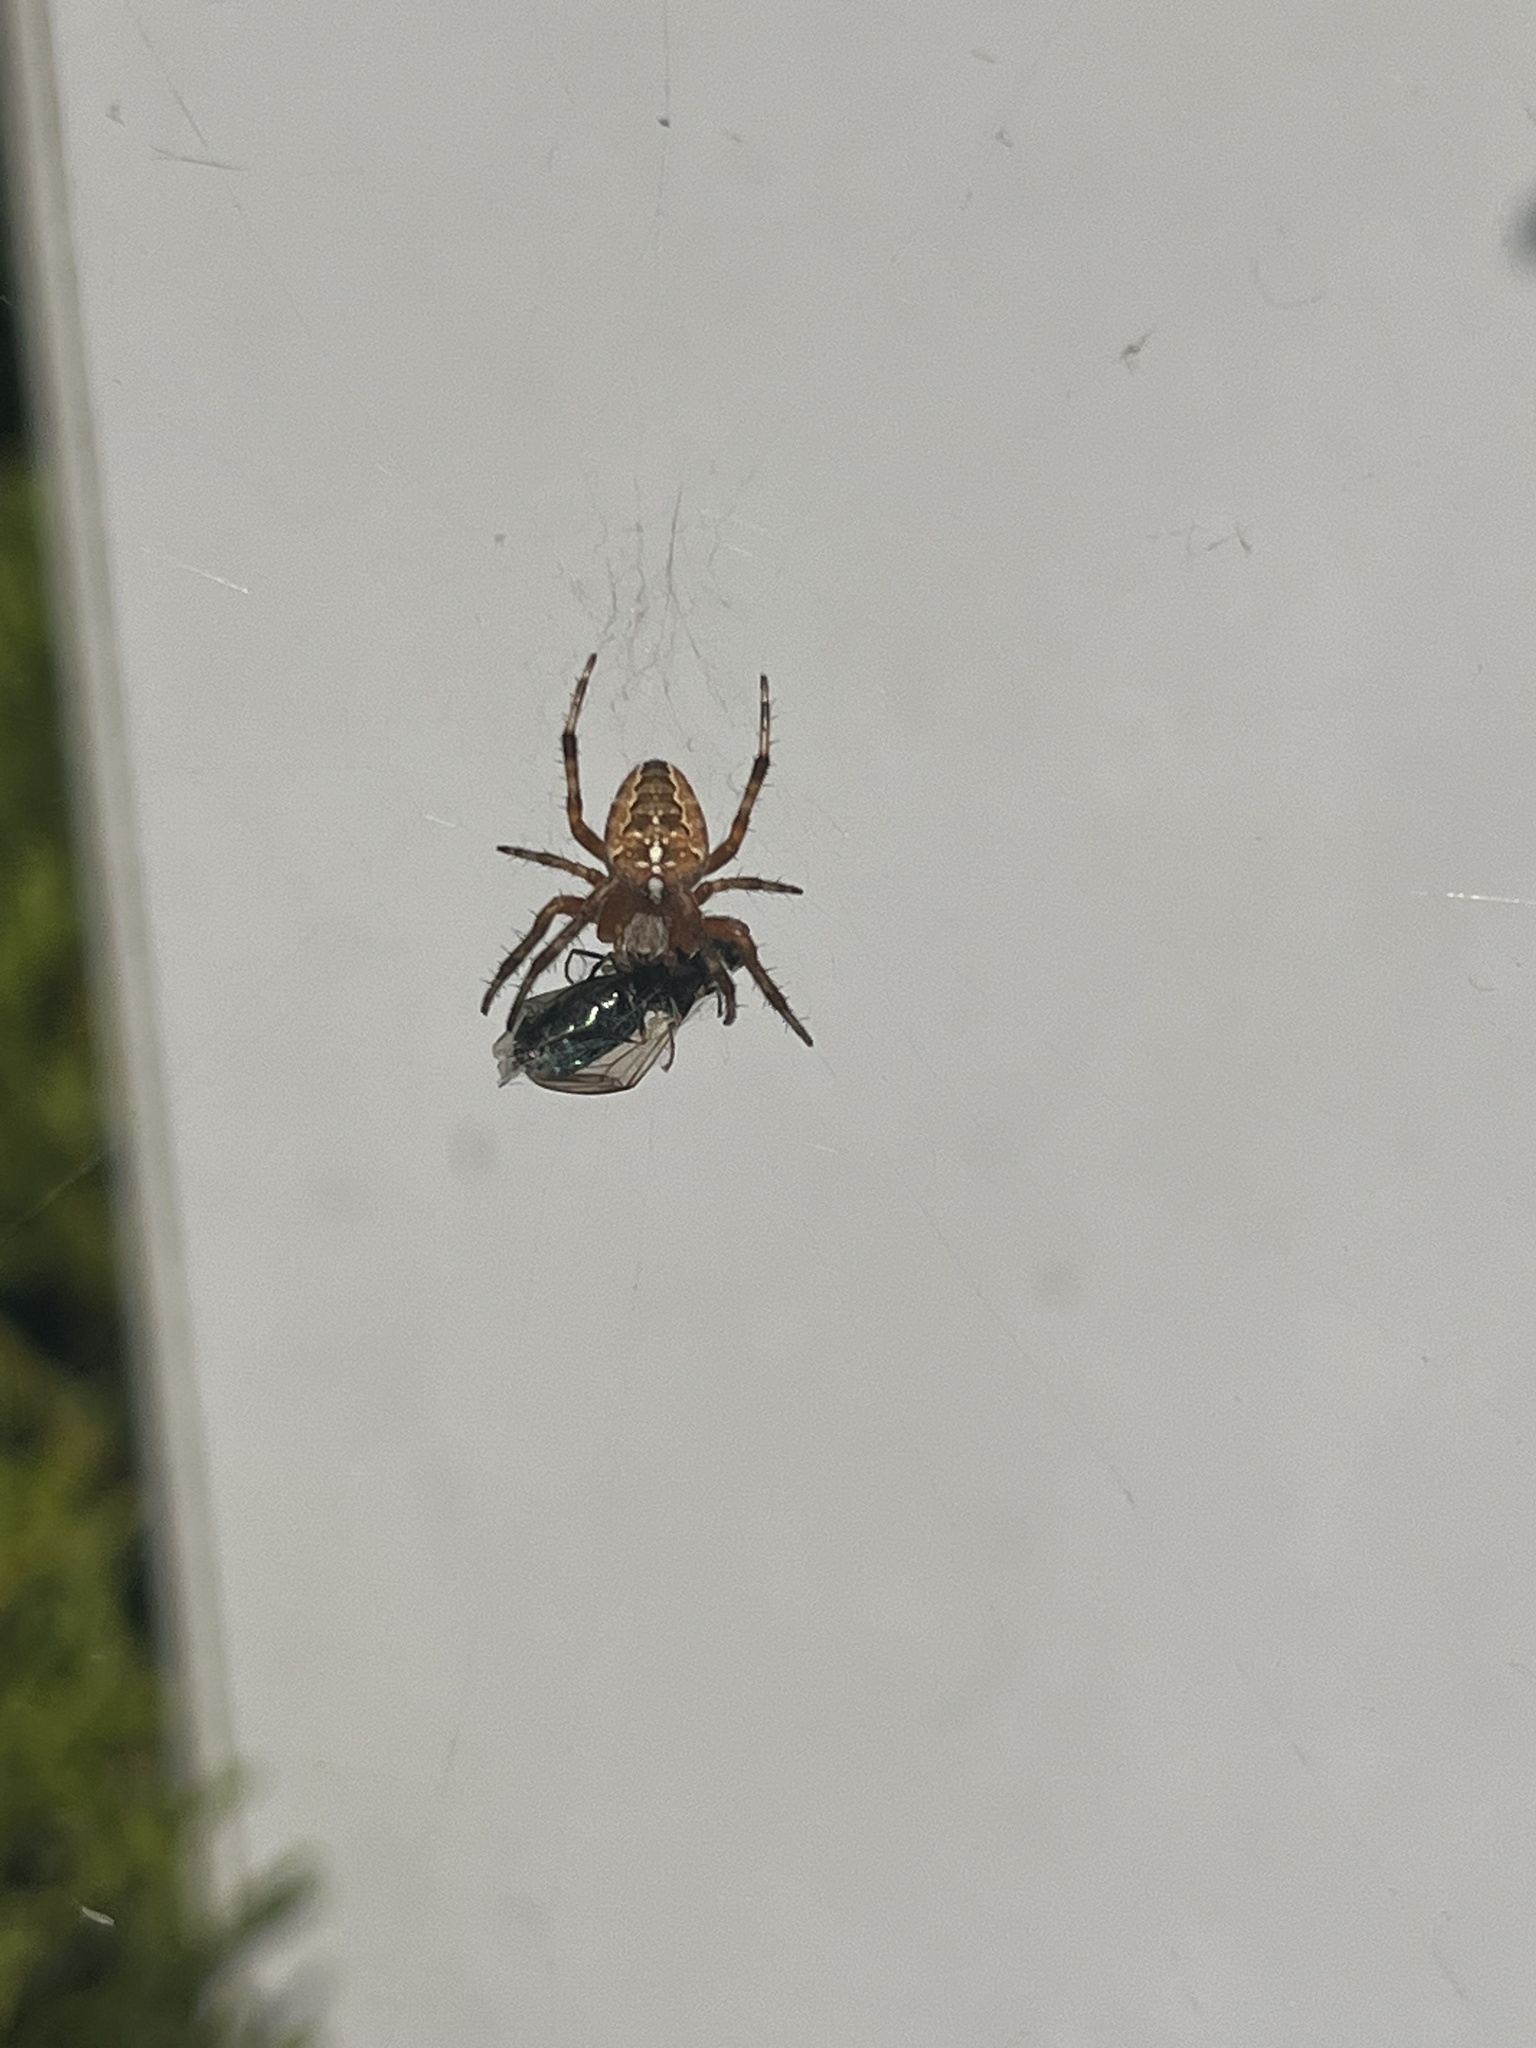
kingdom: Animalia
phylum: Arthropoda
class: Arachnida
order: Araneae
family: Araneidae
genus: Araneus
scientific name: Araneus diadematus
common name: Cross orbweaver
